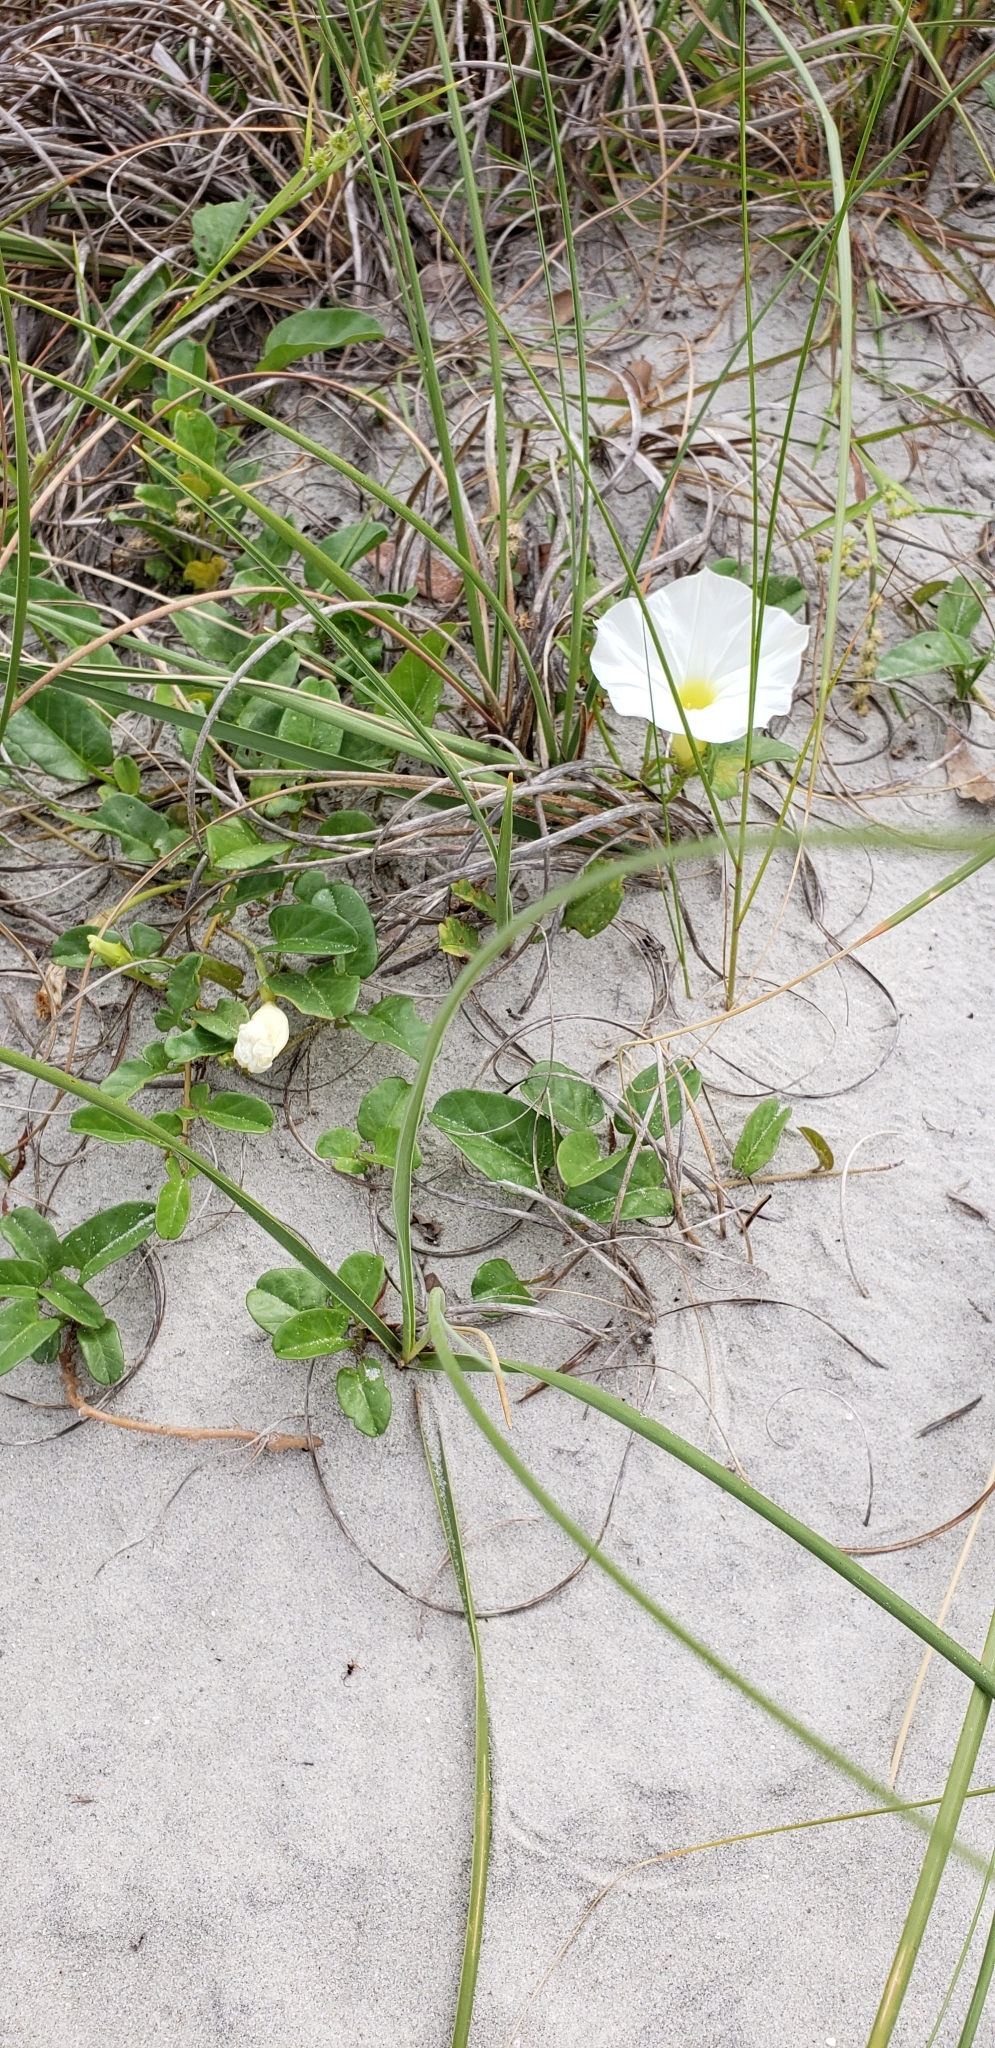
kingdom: Plantae
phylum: Tracheophyta
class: Magnoliopsida
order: Solanales
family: Convolvulaceae
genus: Ipomoea
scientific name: Ipomoea imperati
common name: Fiddle-leaf morning-glory
